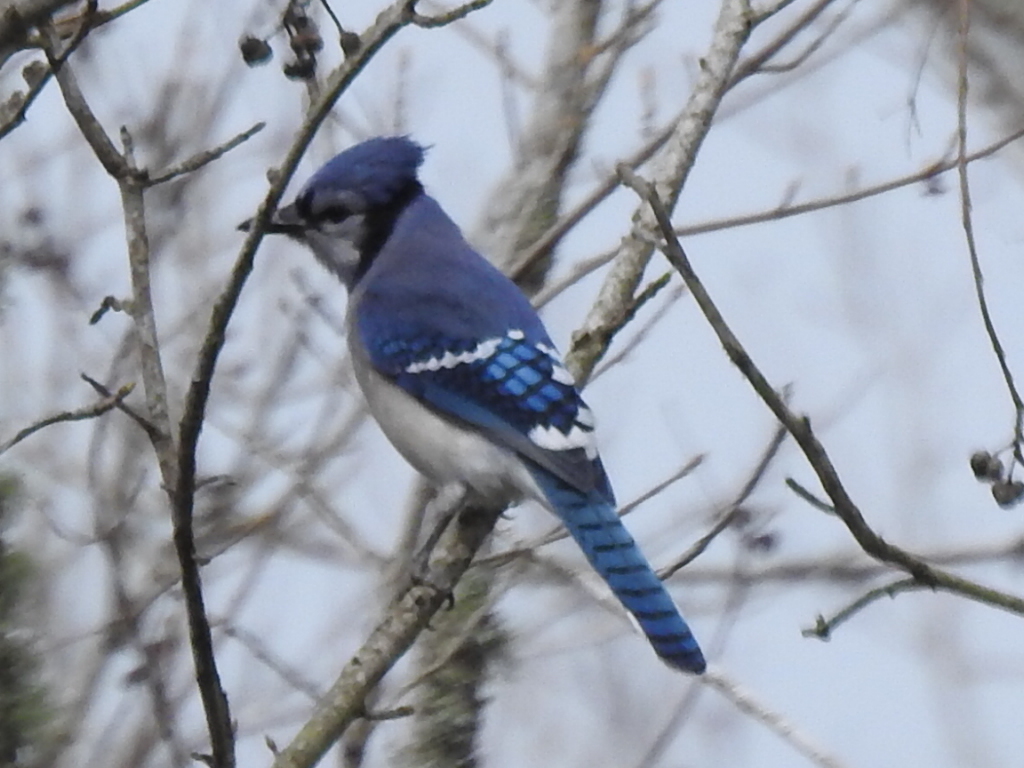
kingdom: Animalia
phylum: Chordata
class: Aves
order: Passeriformes
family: Corvidae
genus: Cyanocitta
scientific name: Cyanocitta cristata
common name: Blue jay
